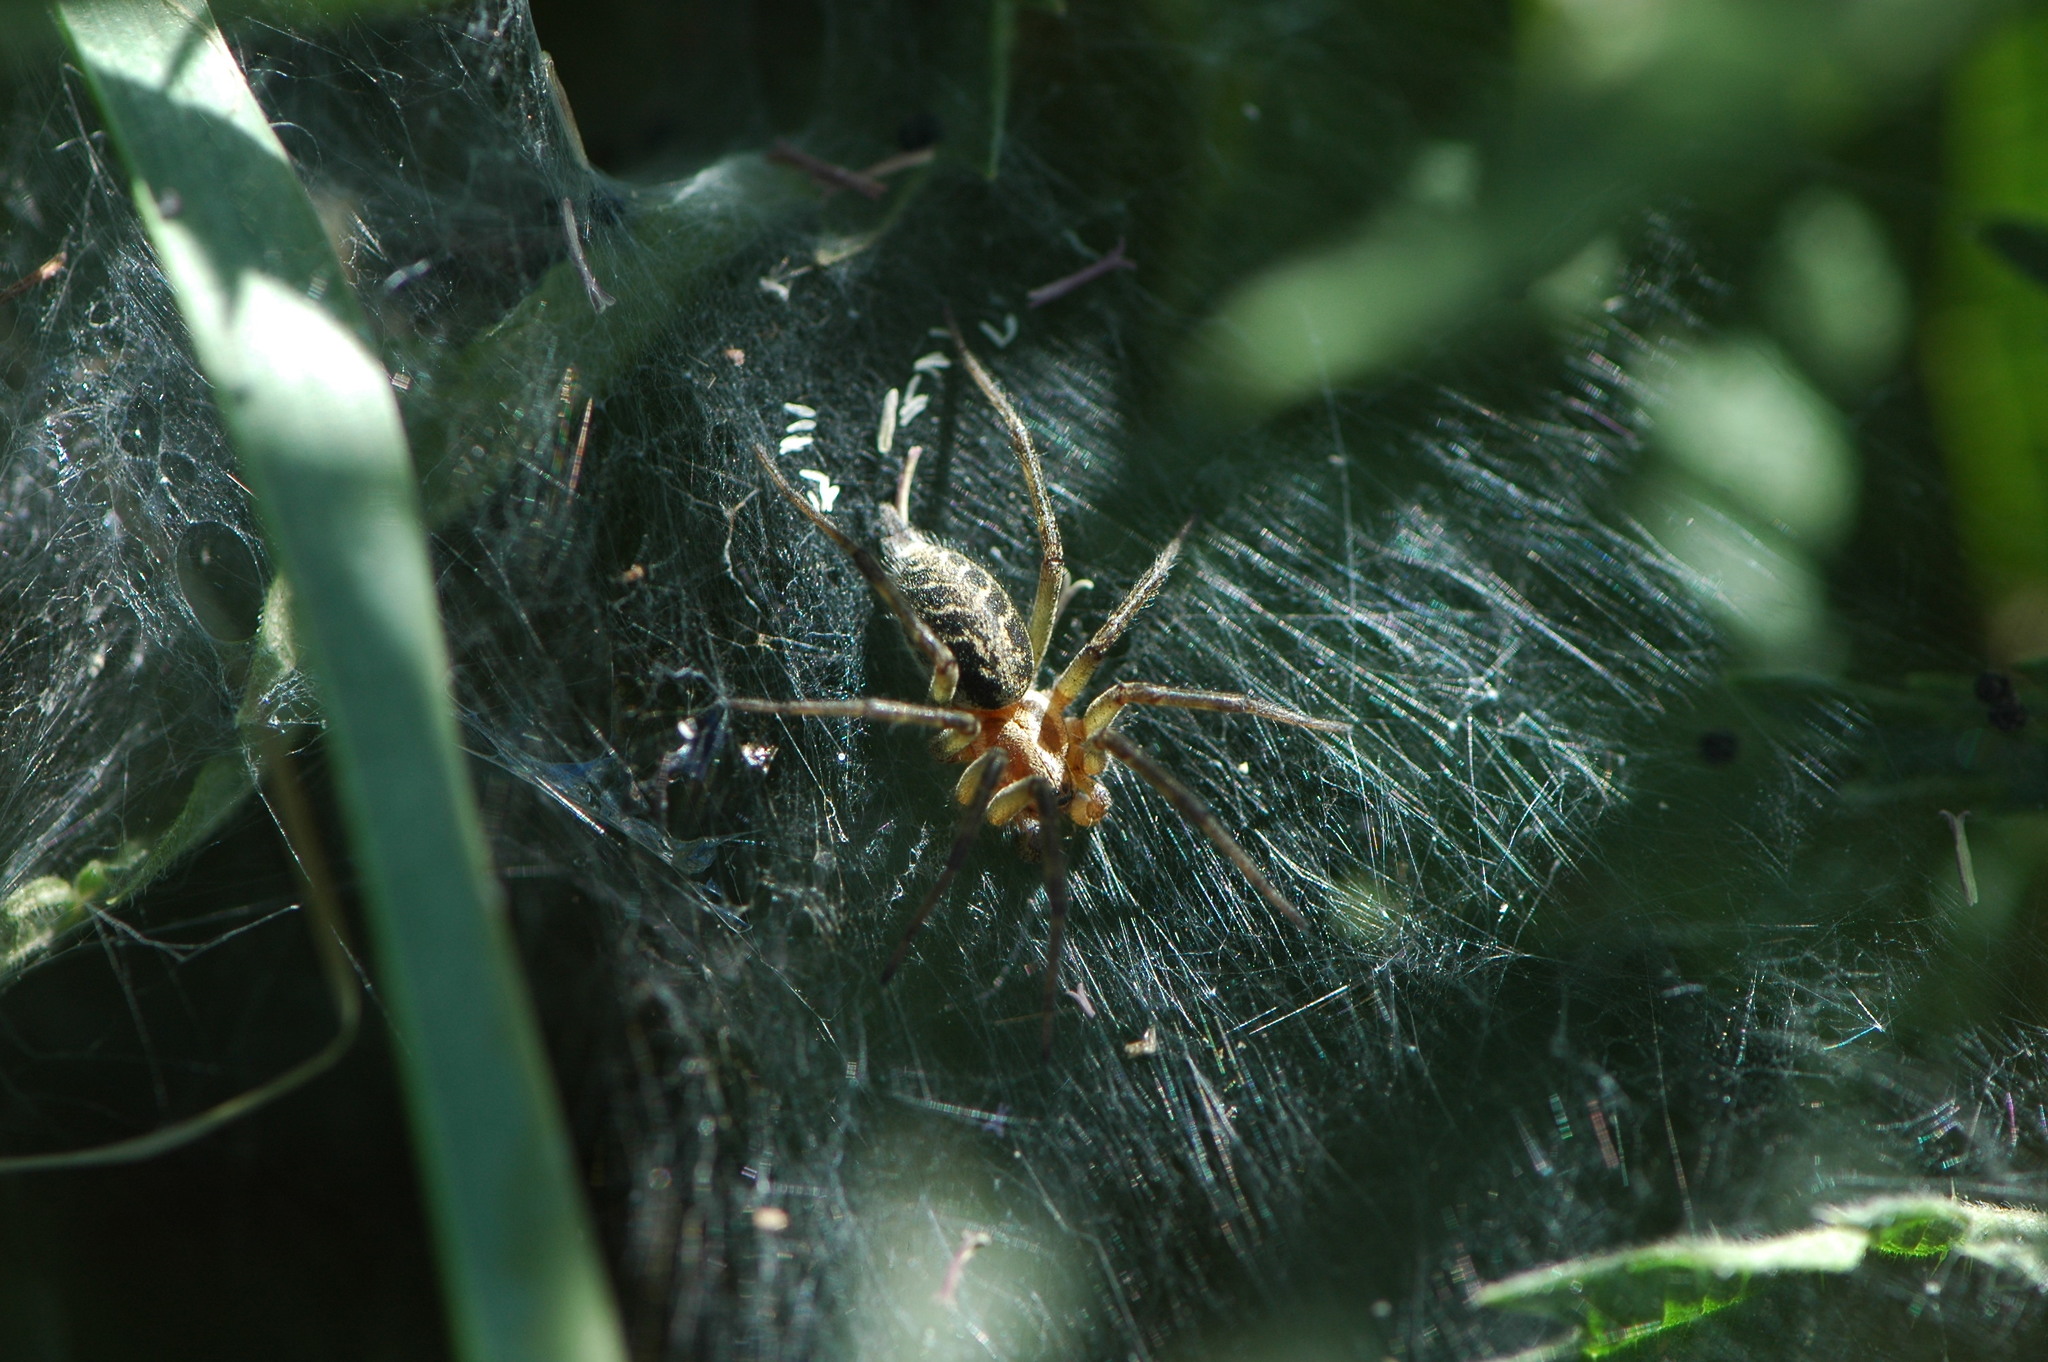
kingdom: Animalia
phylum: Arthropoda
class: Arachnida
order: Araneae
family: Agelenidae
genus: Agelena
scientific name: Agelena labyrinthica
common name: Labyrinth spider
